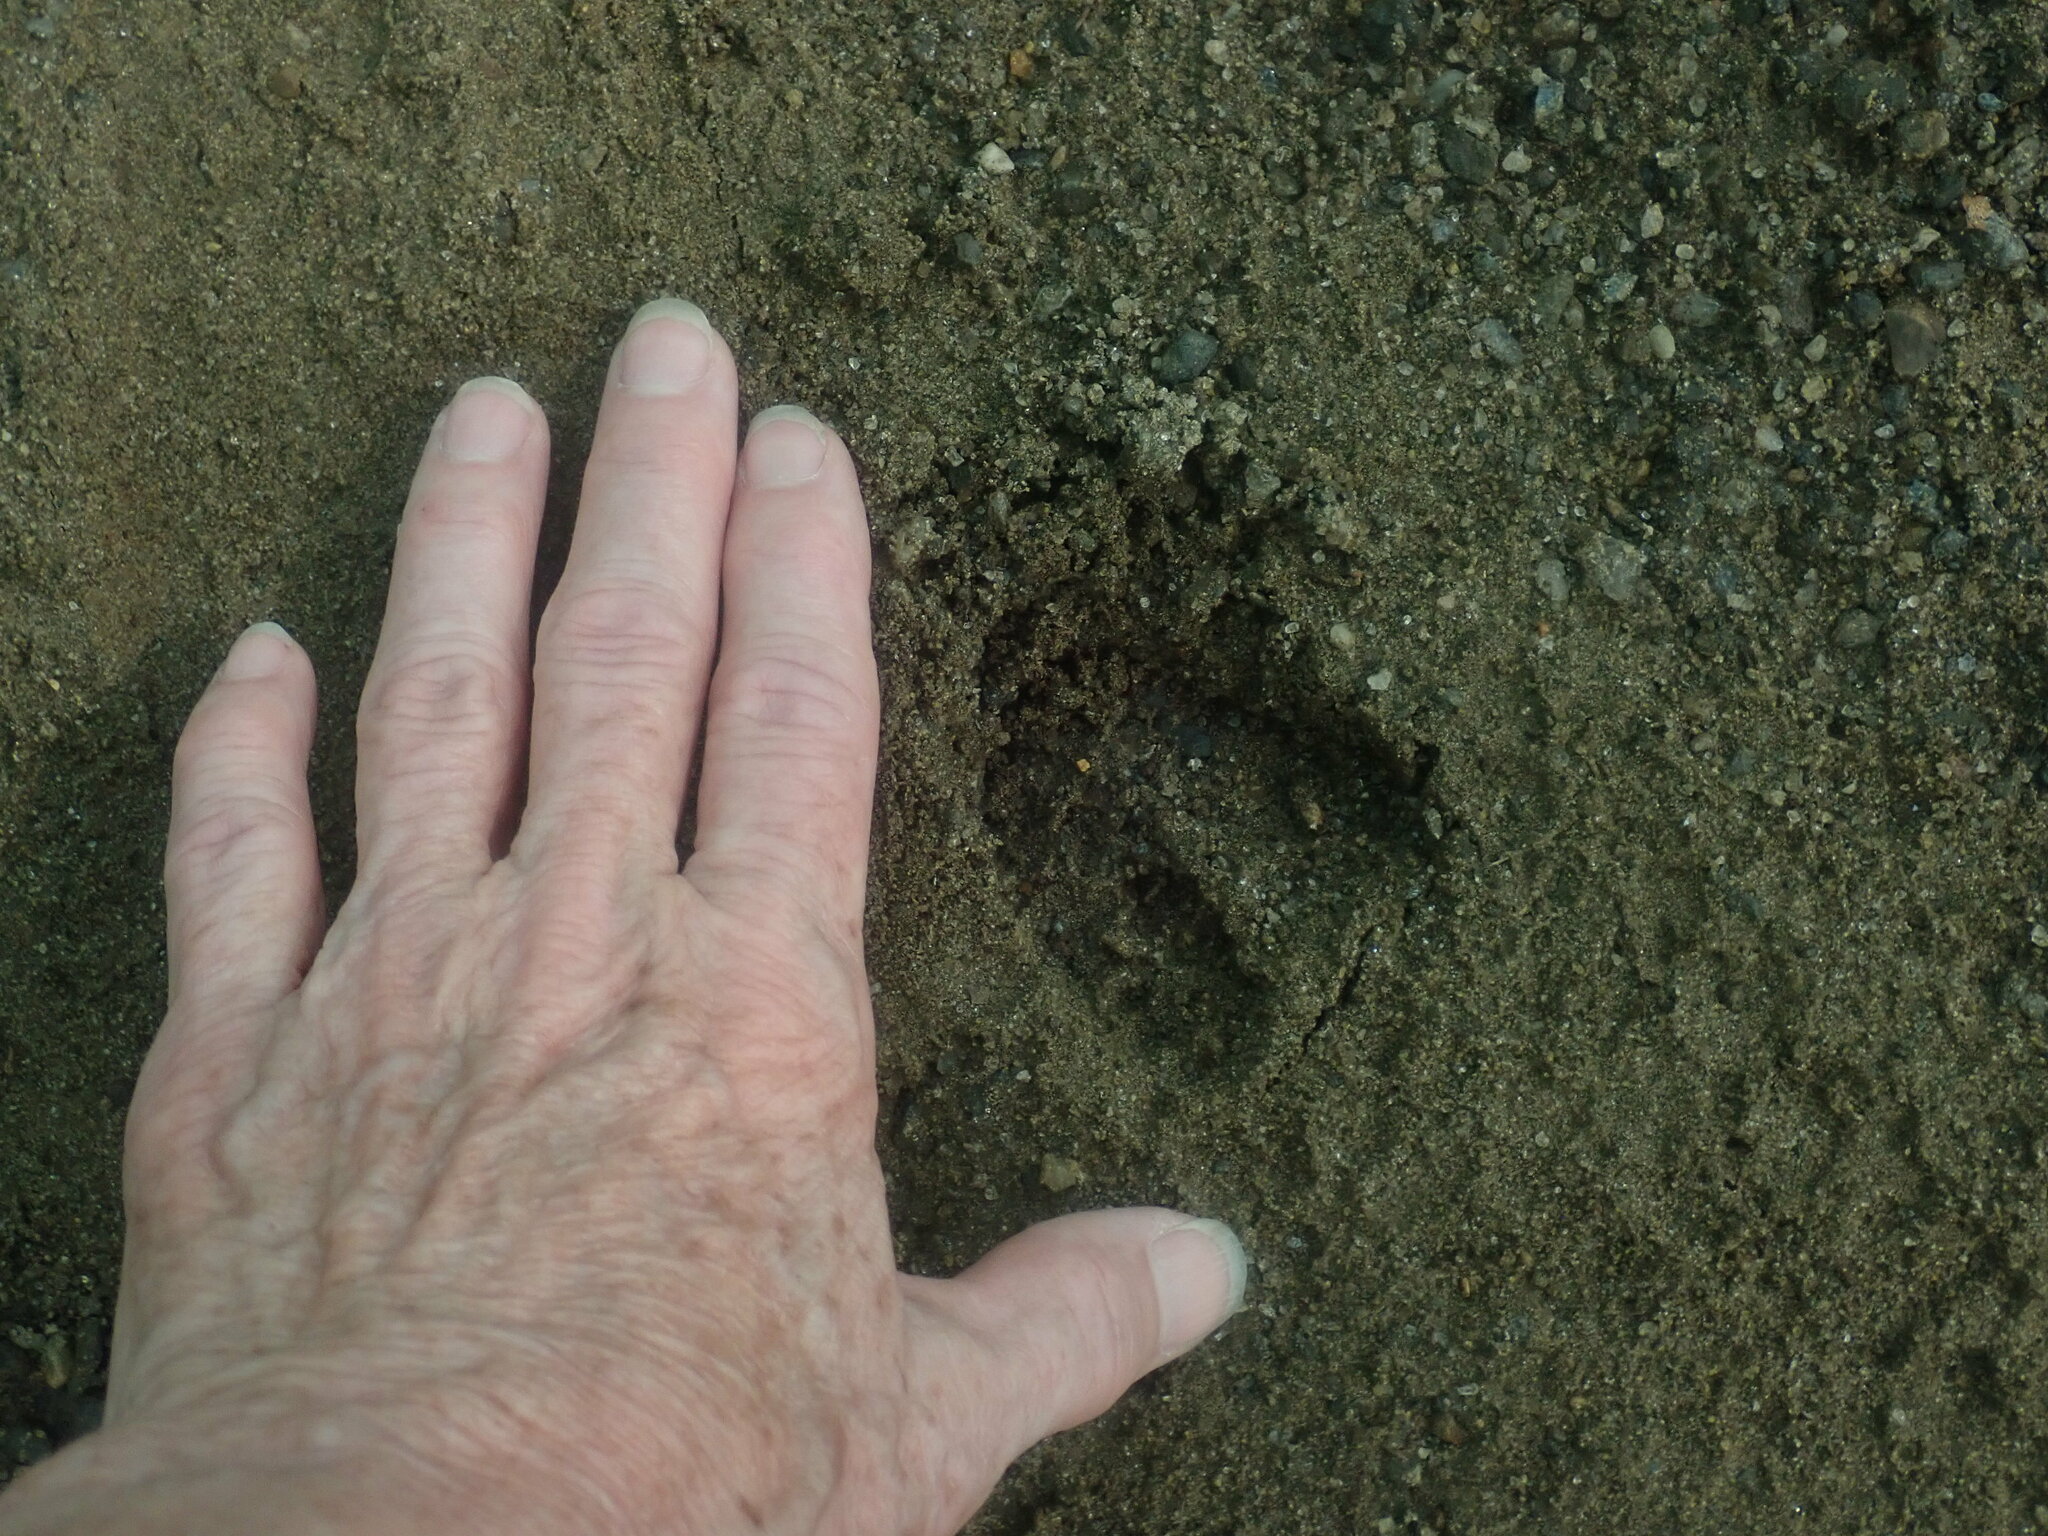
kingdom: Animalia
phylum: Chordata
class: Mammalia
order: Artiodactyla
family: Cervidae
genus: Odocoileus
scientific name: Odocoileus virginianus
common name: White-tailed deer
